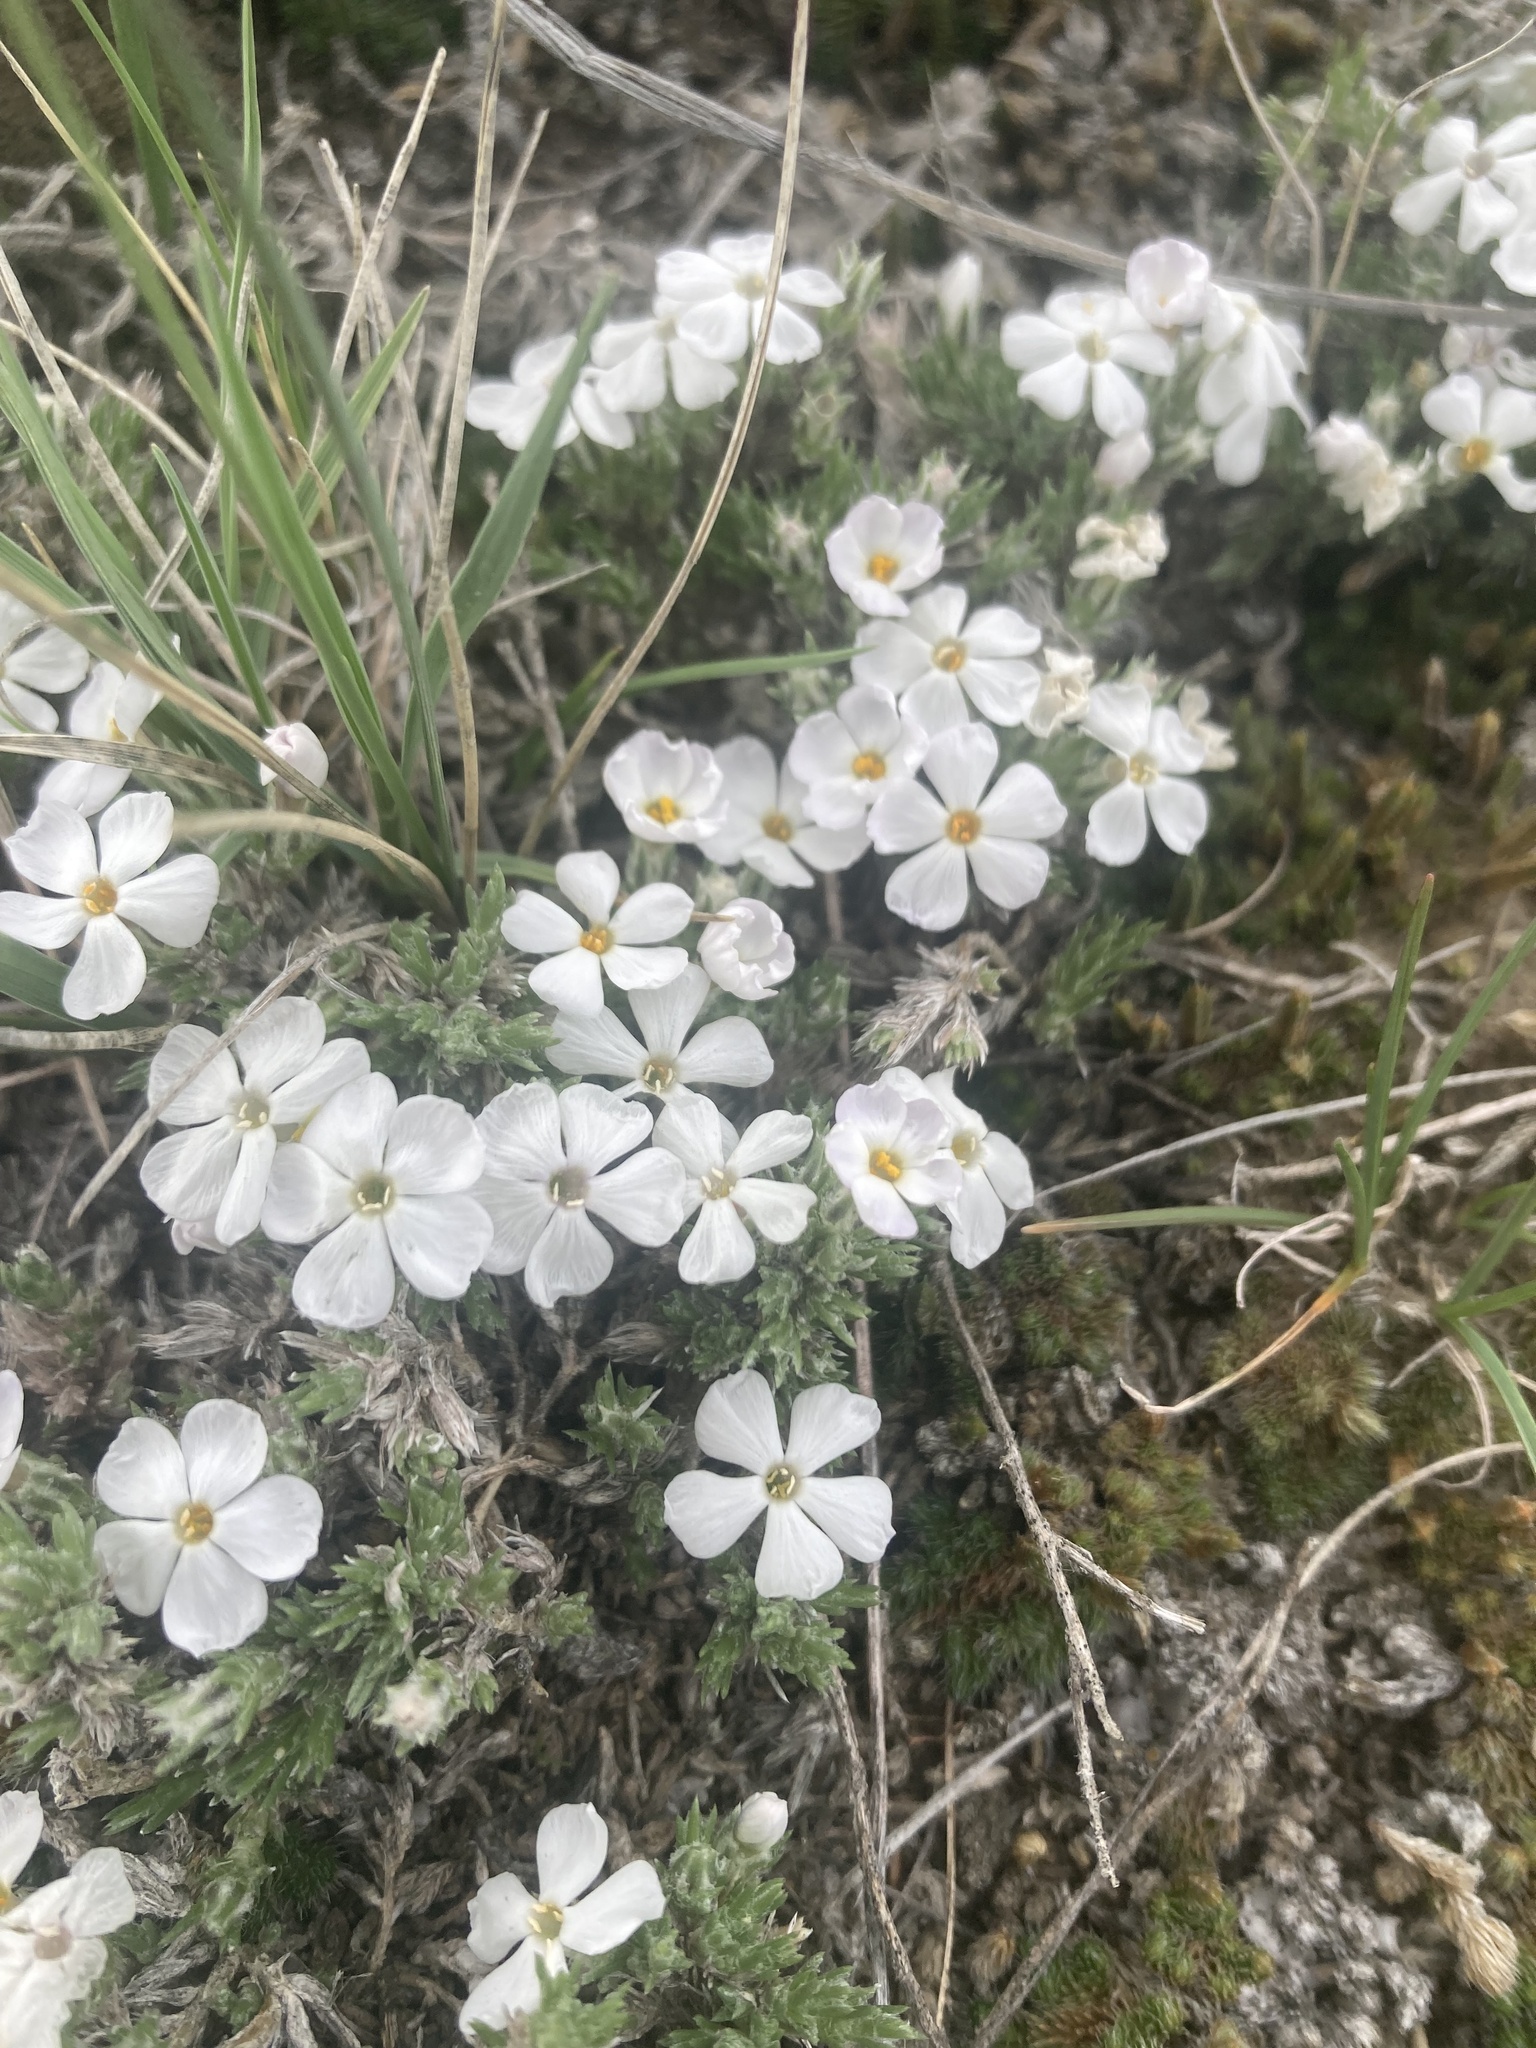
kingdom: Plantae
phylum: Tracheophyta
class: Magnoliopsida
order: Ericales
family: Polemoniaceae
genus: Phlox
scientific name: Phlox hoodii
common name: Moss phlox
